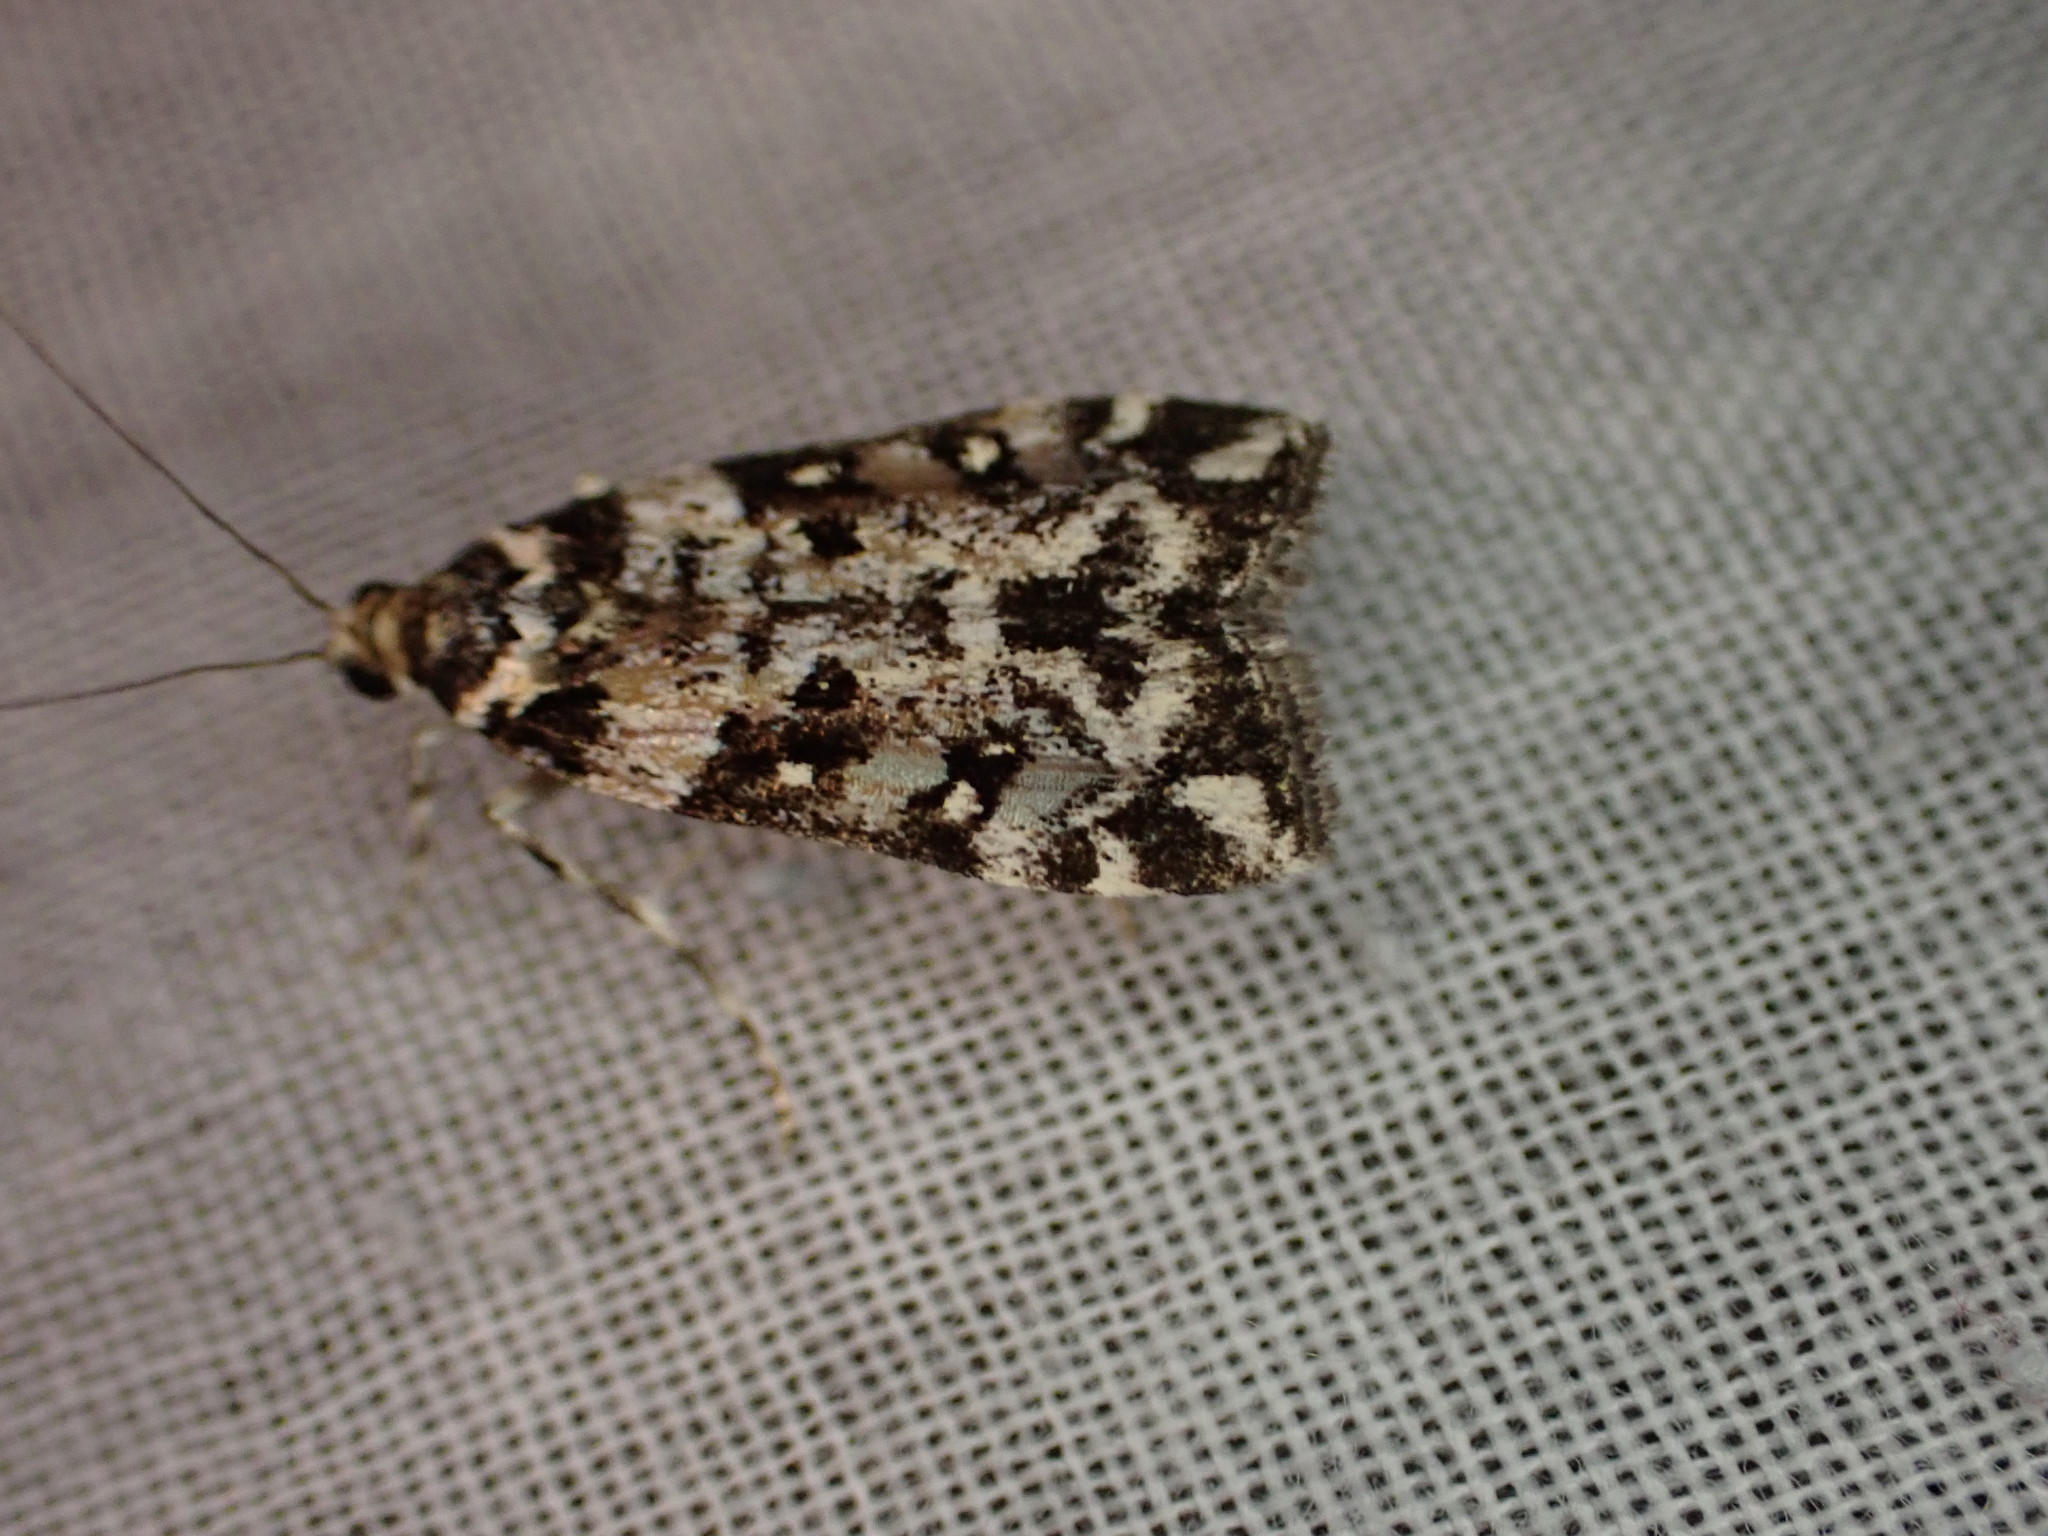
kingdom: Animalia
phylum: Arthropoda
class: Insecta
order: Lepidoptera
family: Crambidae
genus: Eudonia
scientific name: Eudonia diphtheralis
